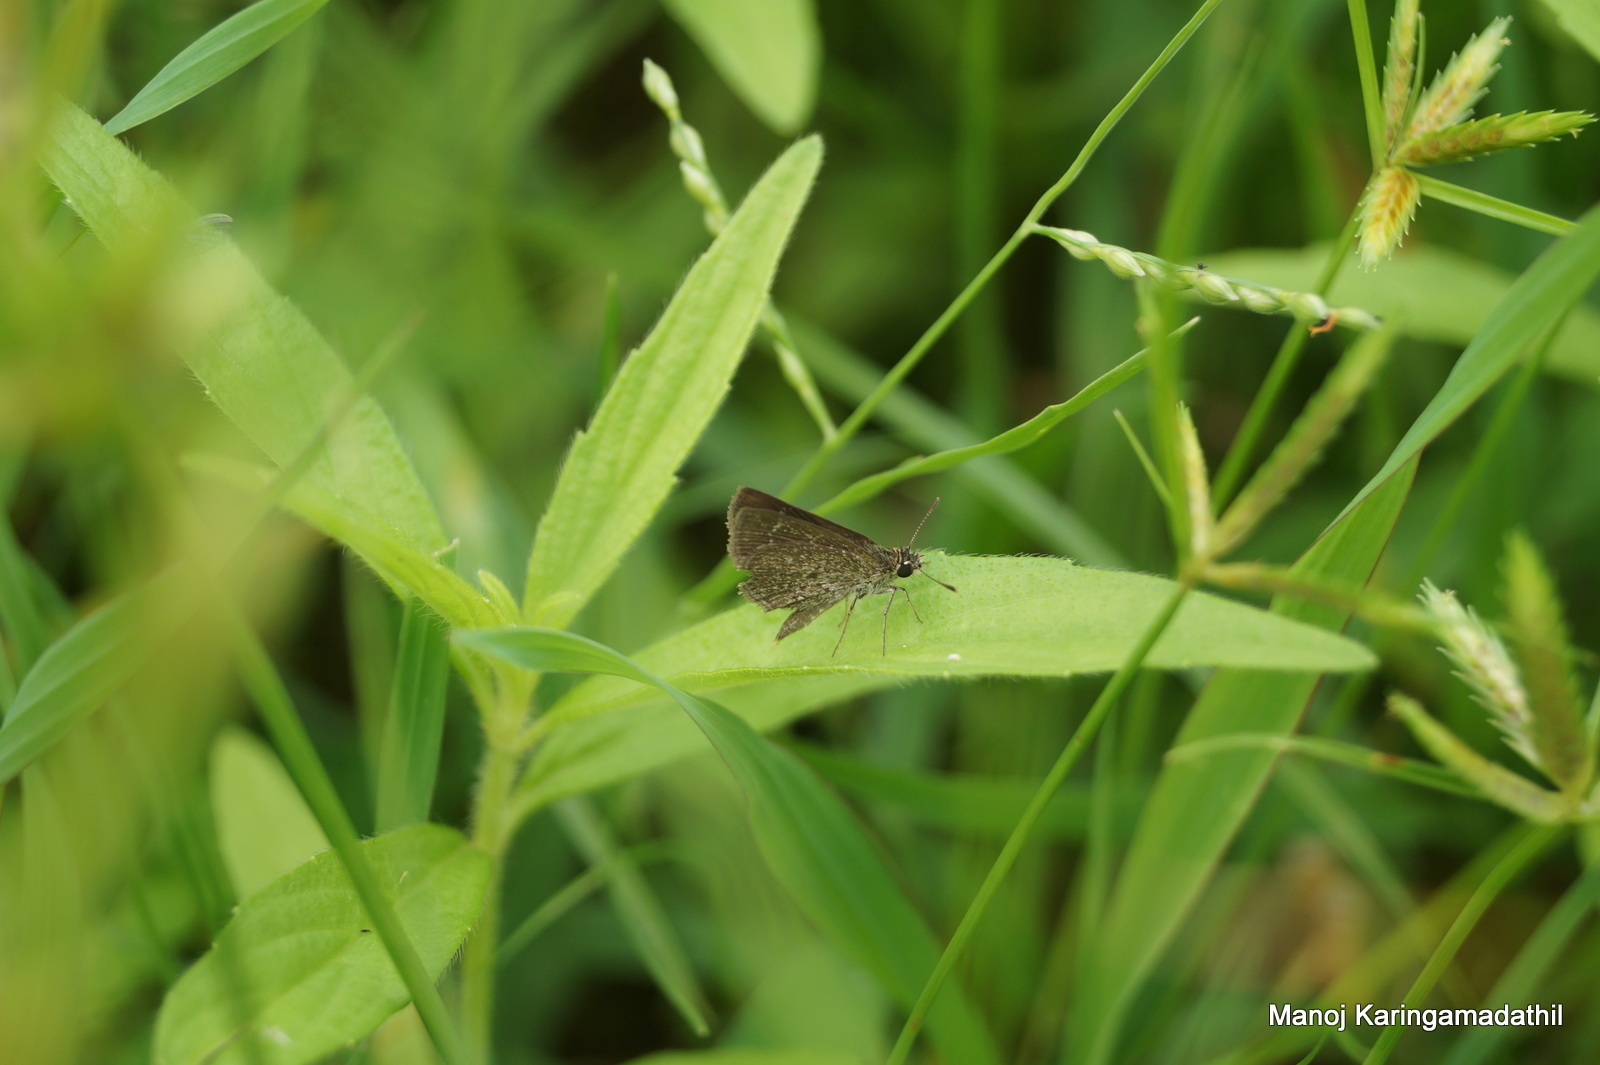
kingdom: Animalia
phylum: Arthropoda
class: Insecta
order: Lepidoptera
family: Hesperiidae
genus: Aeromachus
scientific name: Aeromachus pygmaeus
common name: Pygmy scrub hopper
